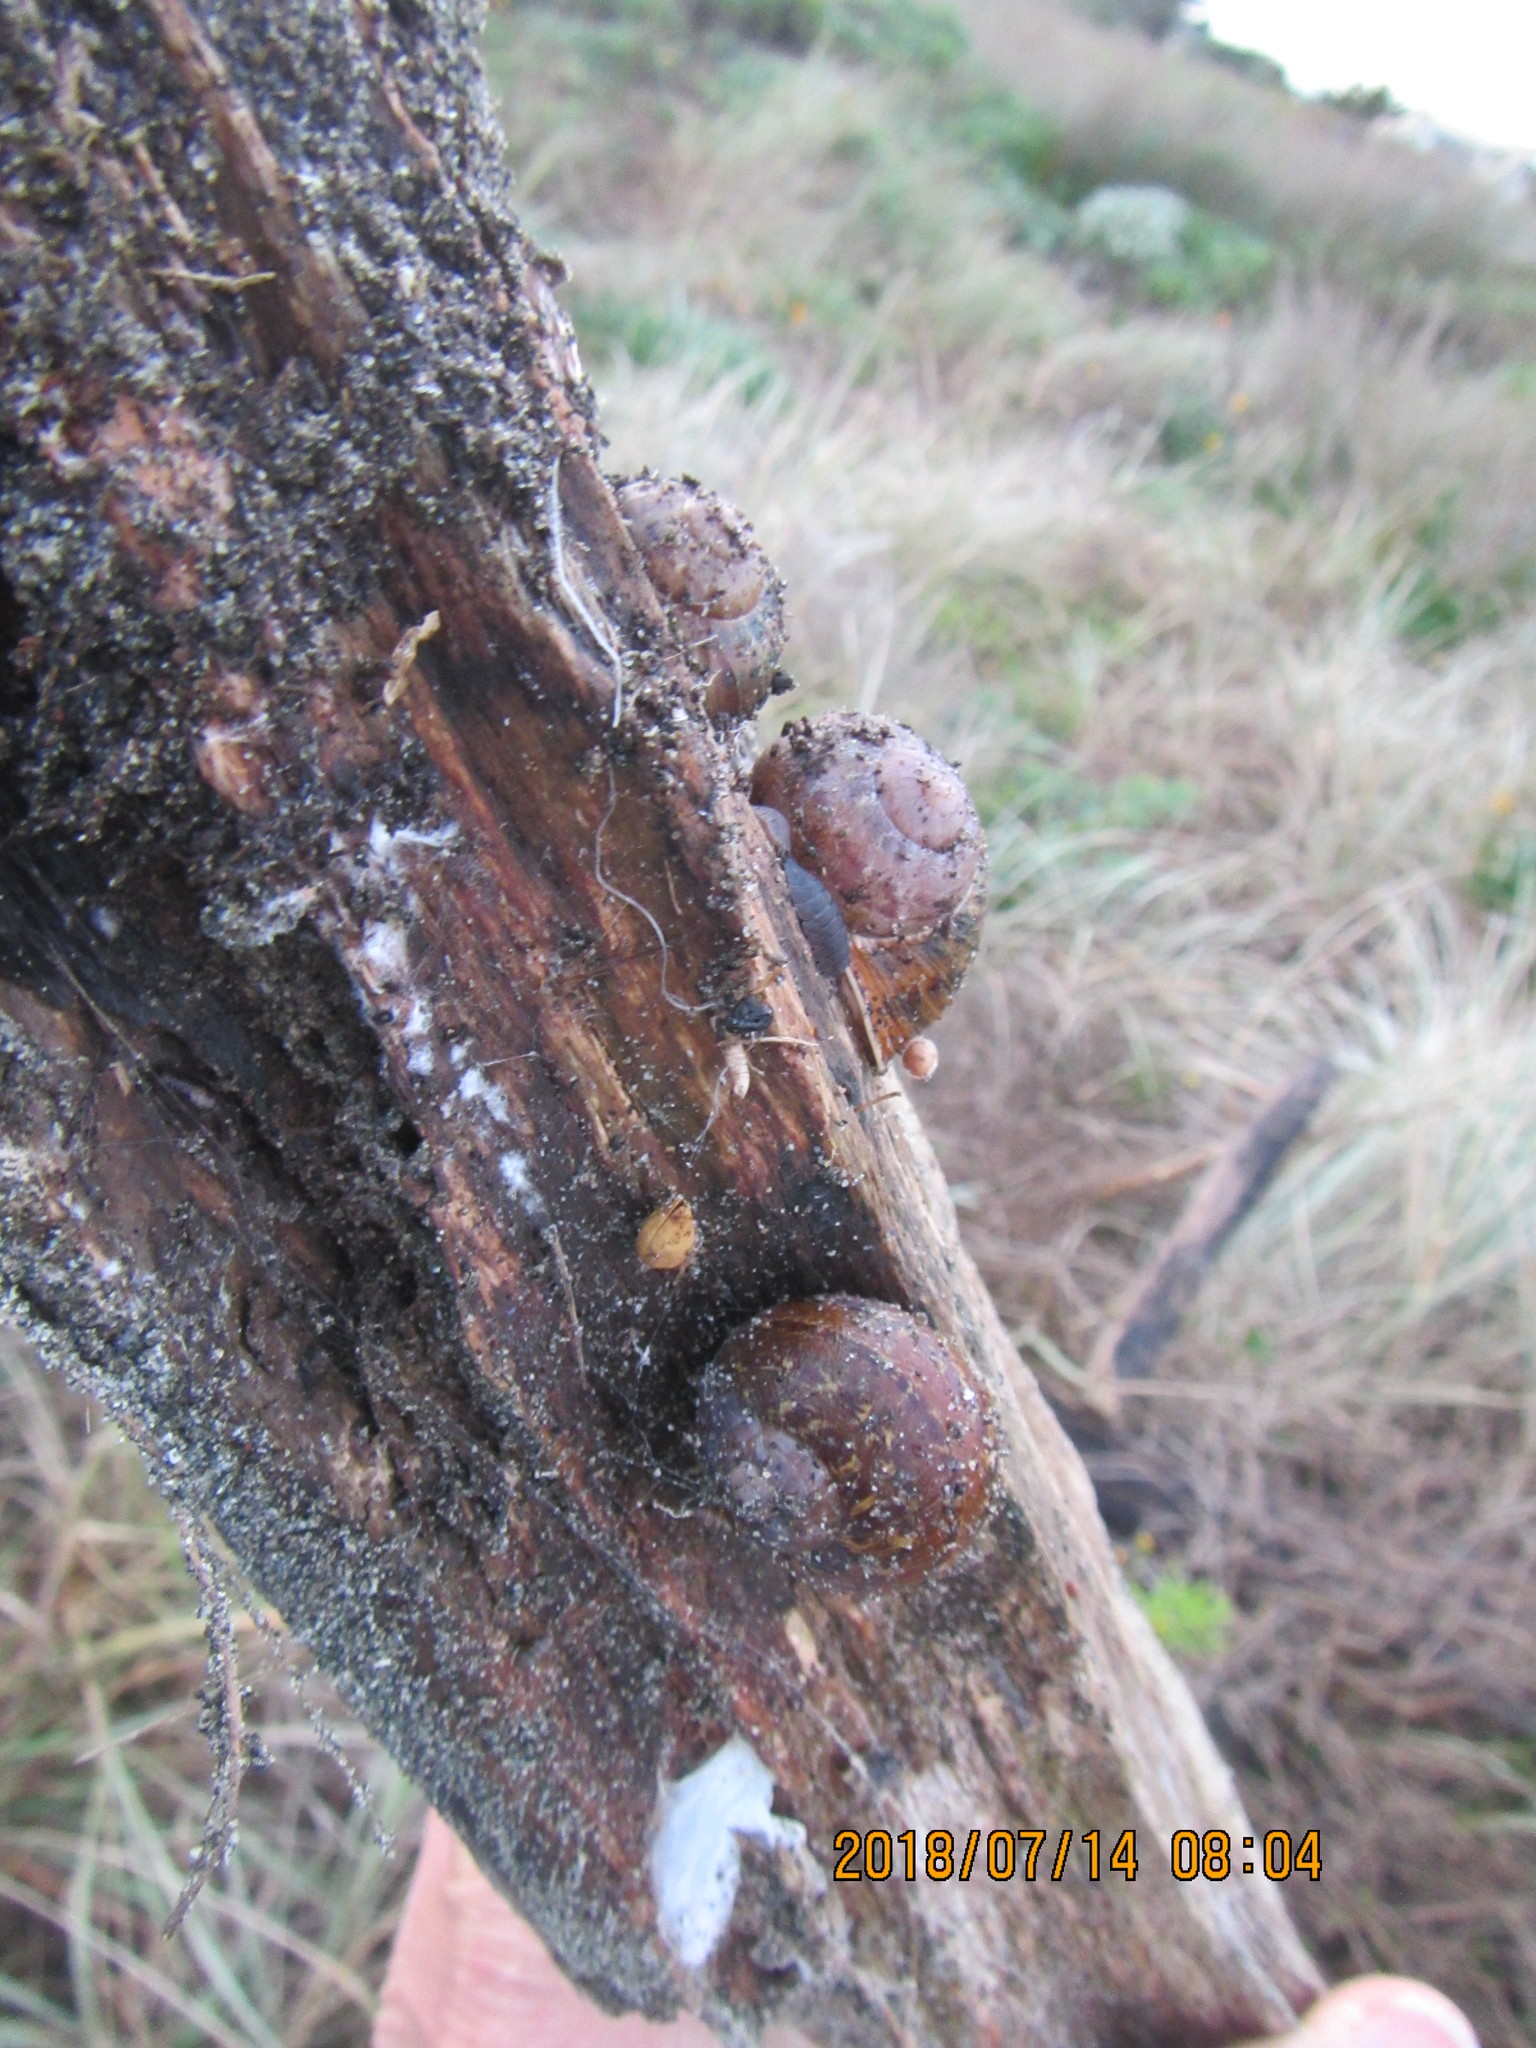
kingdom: Animalia
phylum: Mollusca
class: Gastropoda
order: Stylommatophora
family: Helicidae
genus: Cornu
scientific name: Cornu aspersum
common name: Brown garden snail
